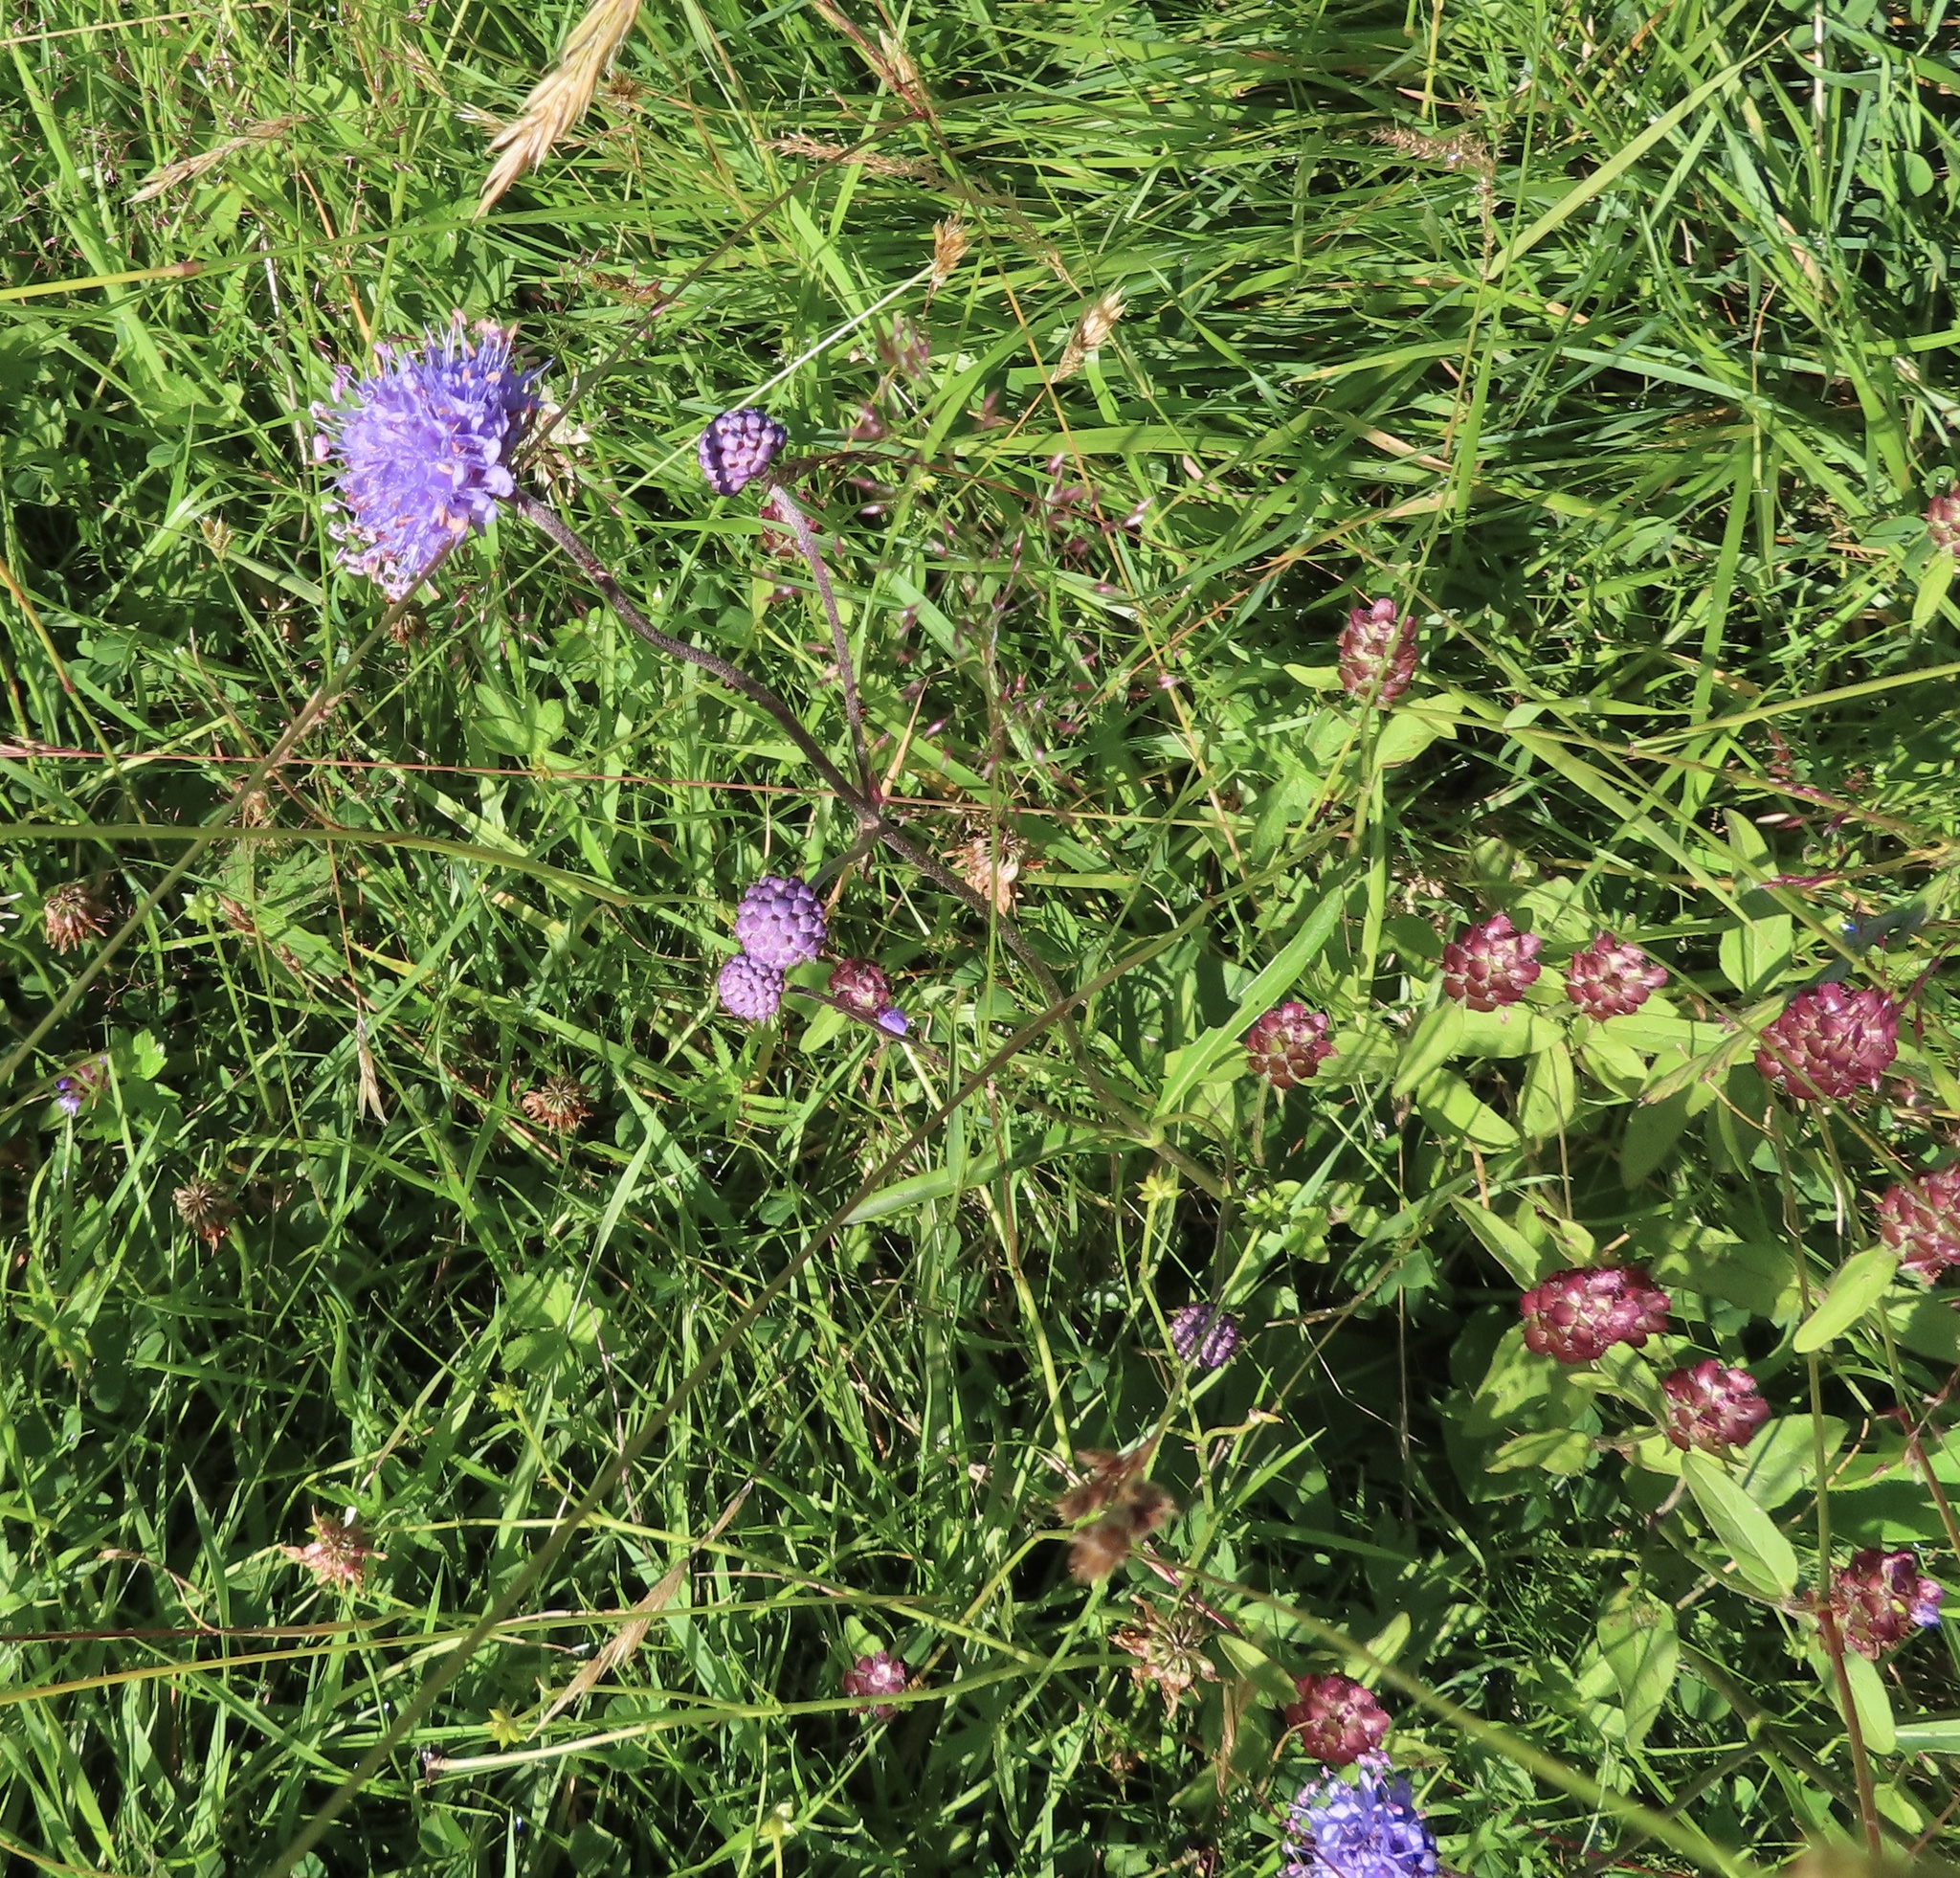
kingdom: Plantae
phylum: Tracheophyta
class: Magnoliopsida
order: Dipsacales
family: Caprifoliaceae
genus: Succisa
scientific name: Succisa pratensis
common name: Devil's-bit
